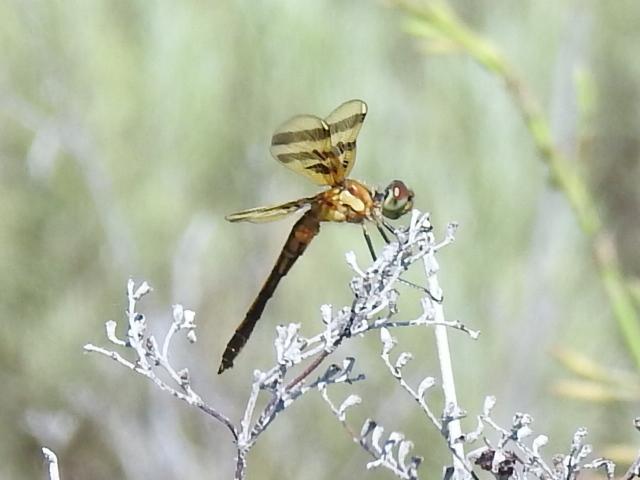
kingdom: Animalia
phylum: Arthropoda
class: Insecta
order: Odonata
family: Libellulidae
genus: Celithemis
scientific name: Celithemis eponina
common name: Halloween pennant
